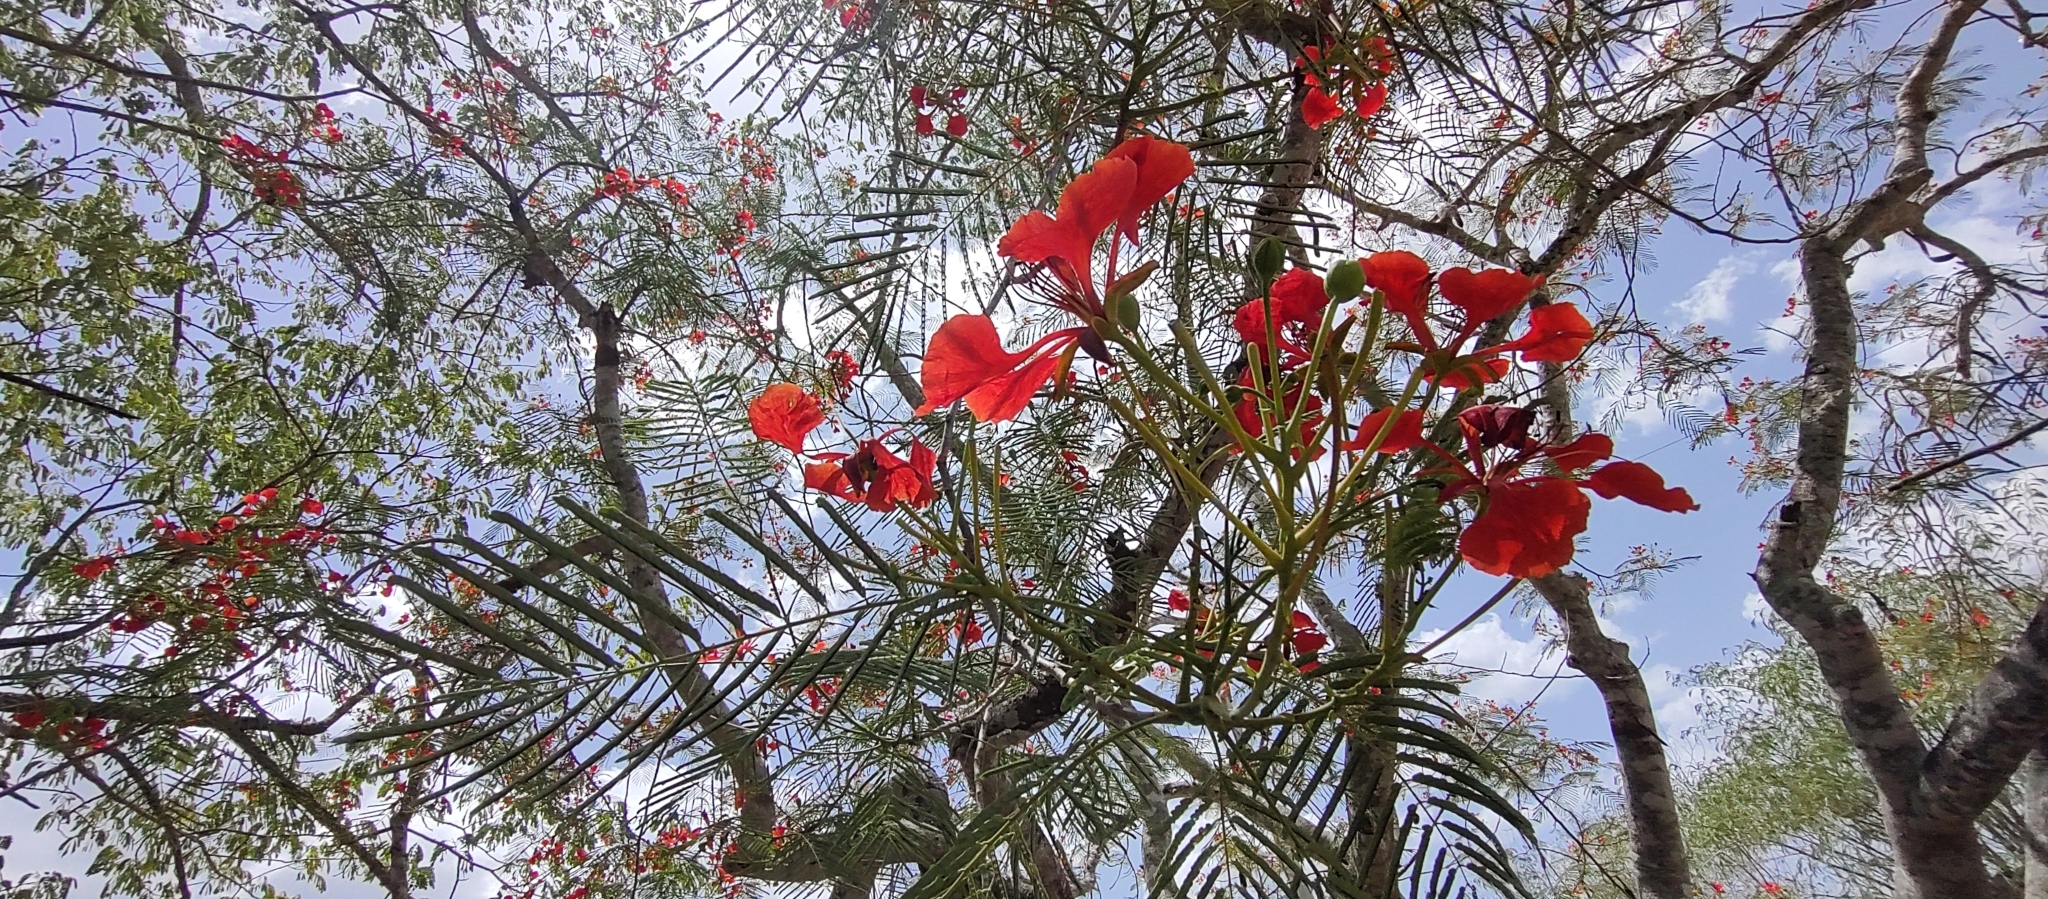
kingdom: Plantae
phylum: Tracheophyta
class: Magnoliopsida
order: Fabales
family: Fabaceae
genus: Delonix
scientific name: Delonix regia
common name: Royal poinciana
